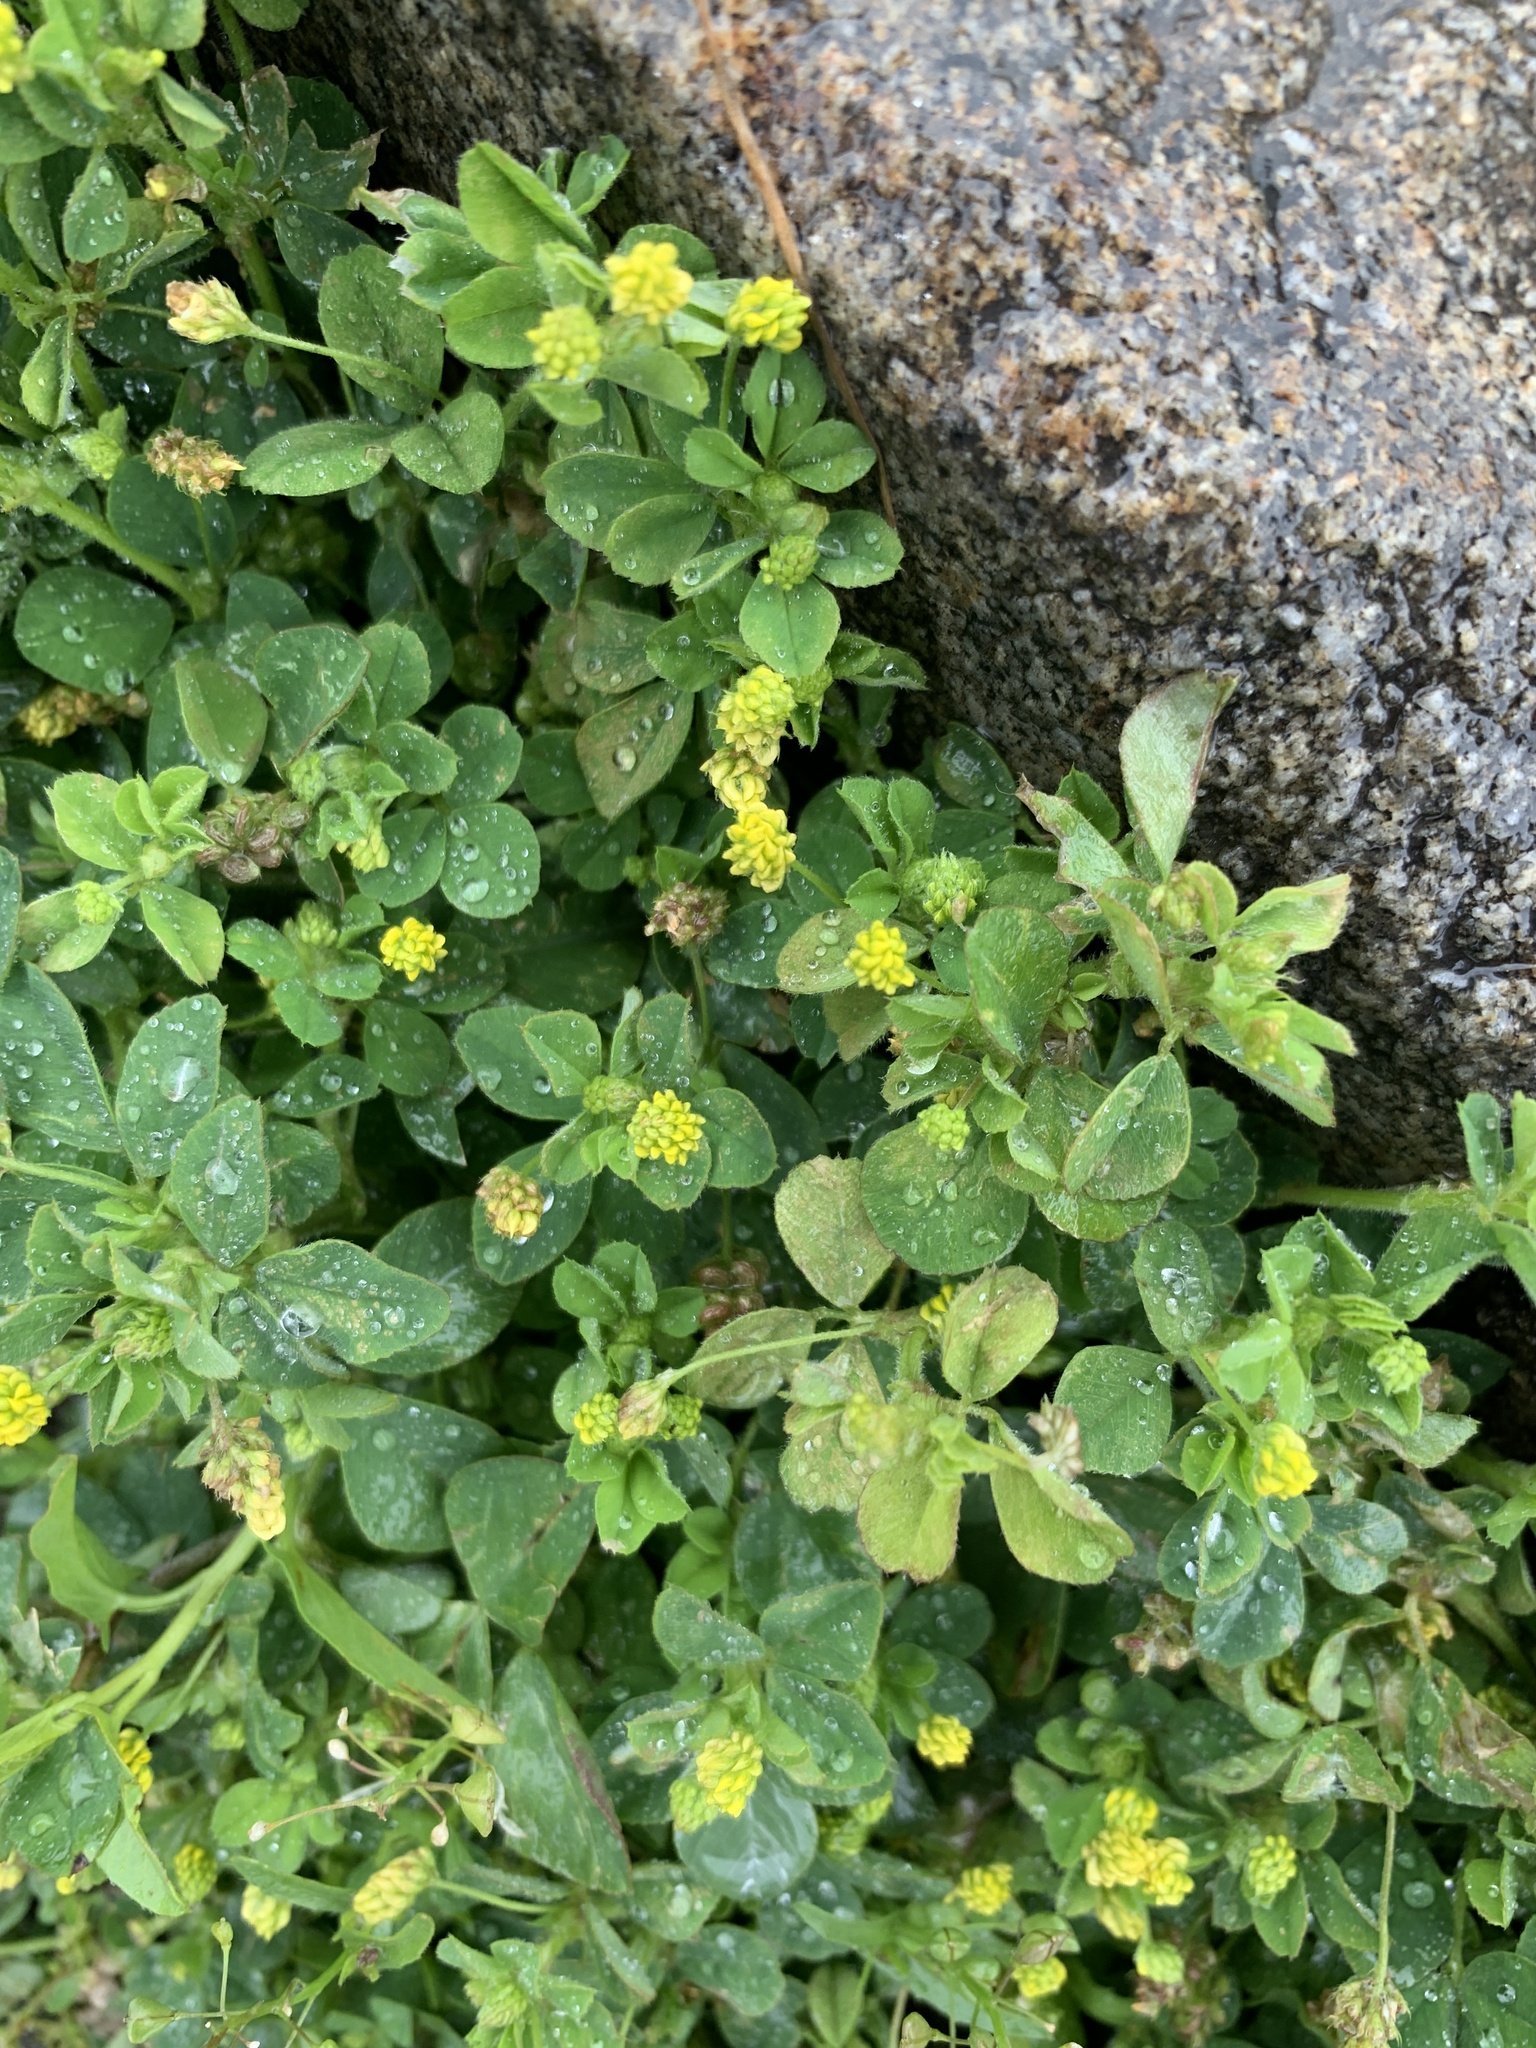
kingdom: Plantae
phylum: Tracheophyta
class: Magnoliopsida
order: Fabales
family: Fabaceae
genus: Medicago
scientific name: Medicago lupulina
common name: Black medick
